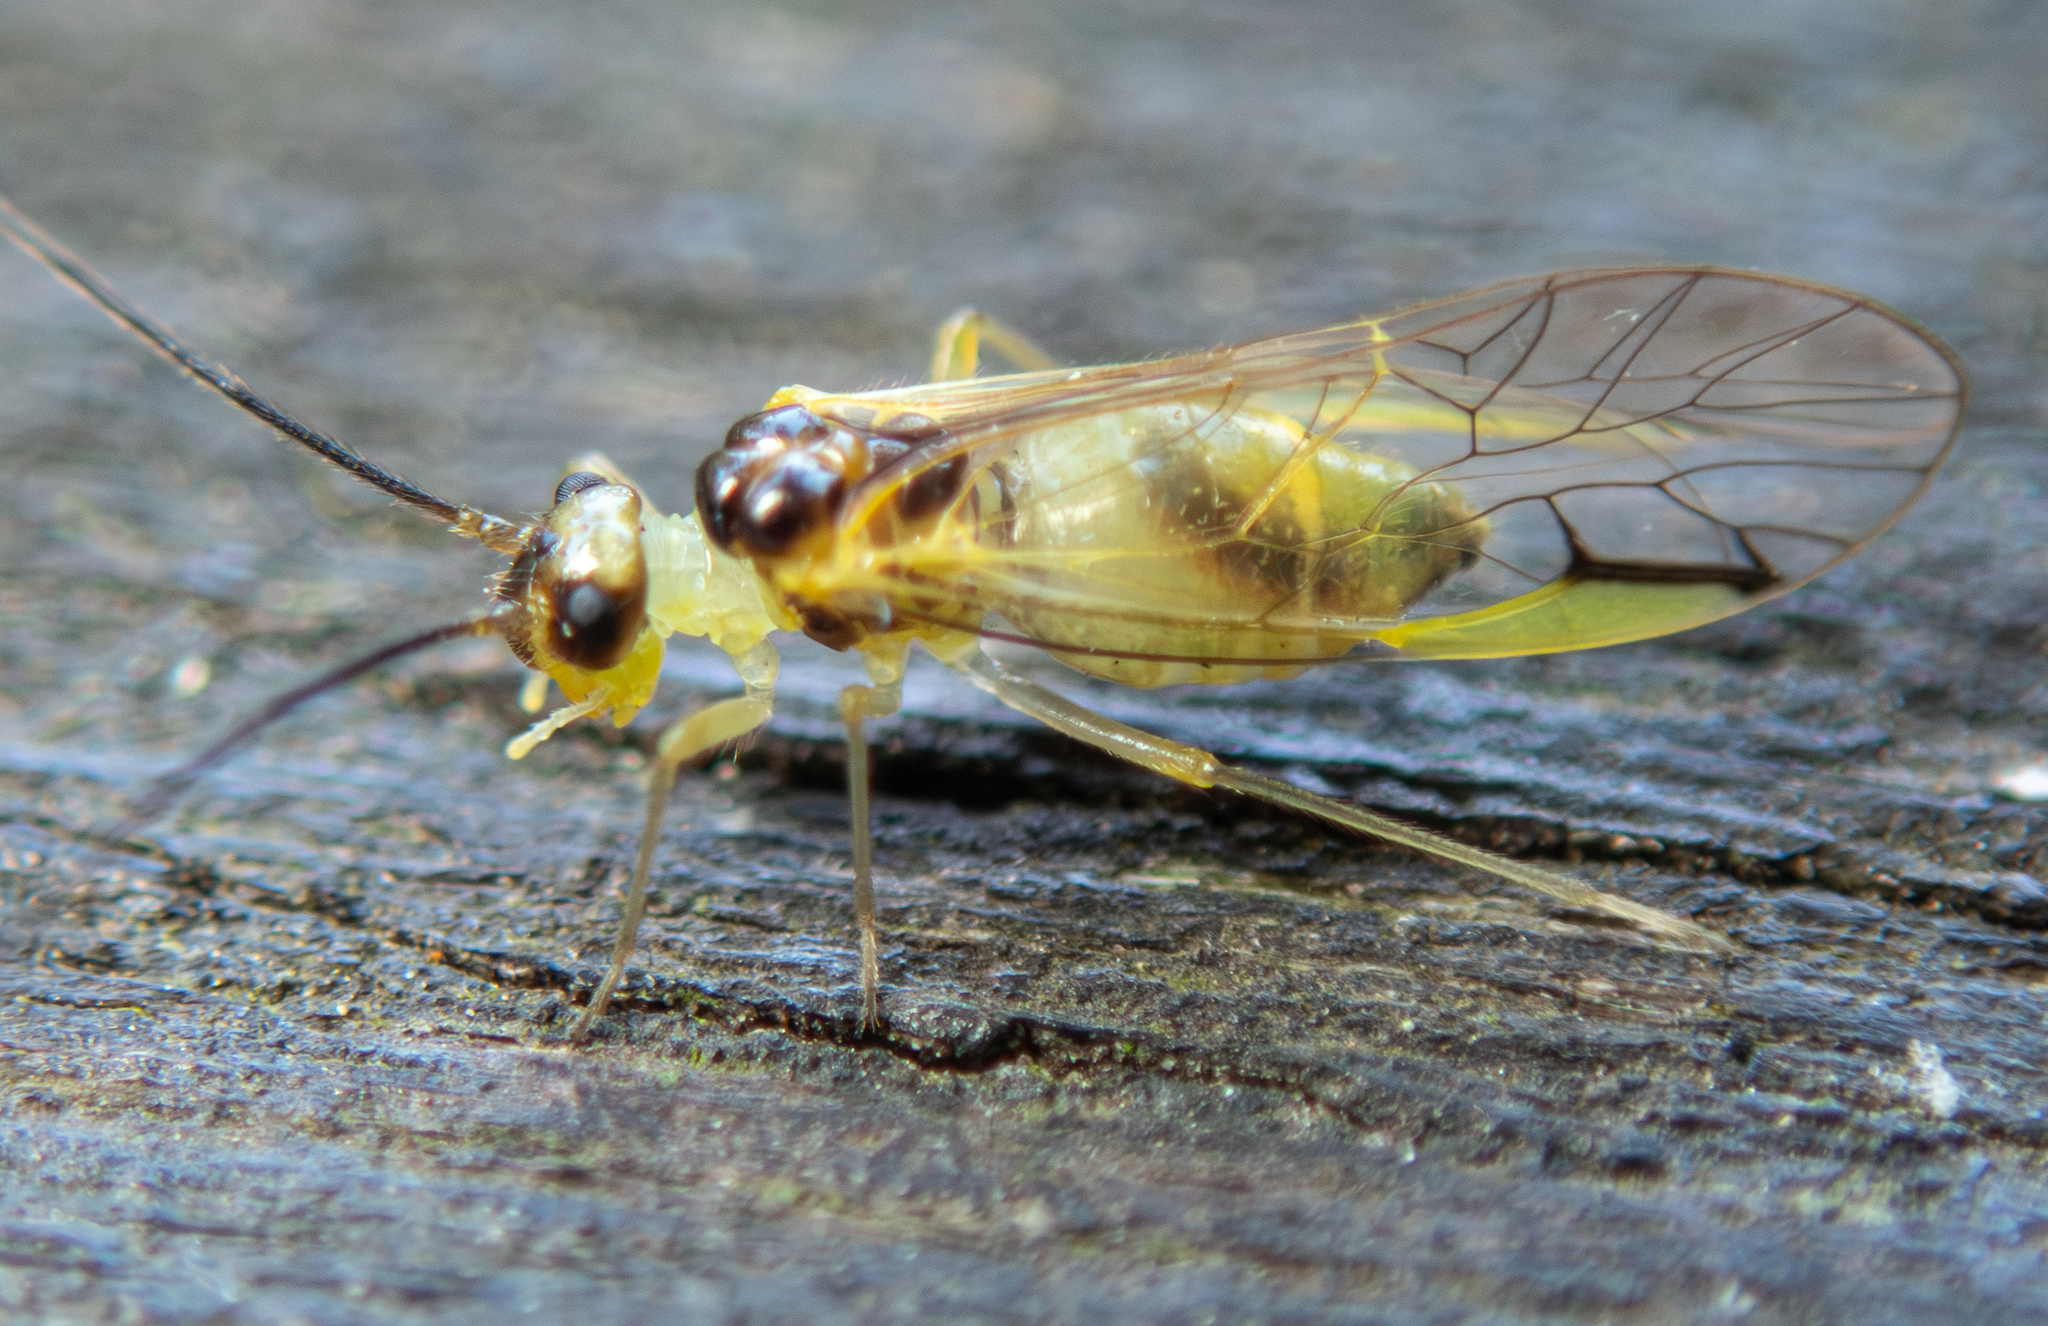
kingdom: Animalia
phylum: Arthropoda
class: Insecta
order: Psocodea
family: Stenopsocidae
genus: Stenopsocus
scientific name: Stenopsocus stigmaticus
